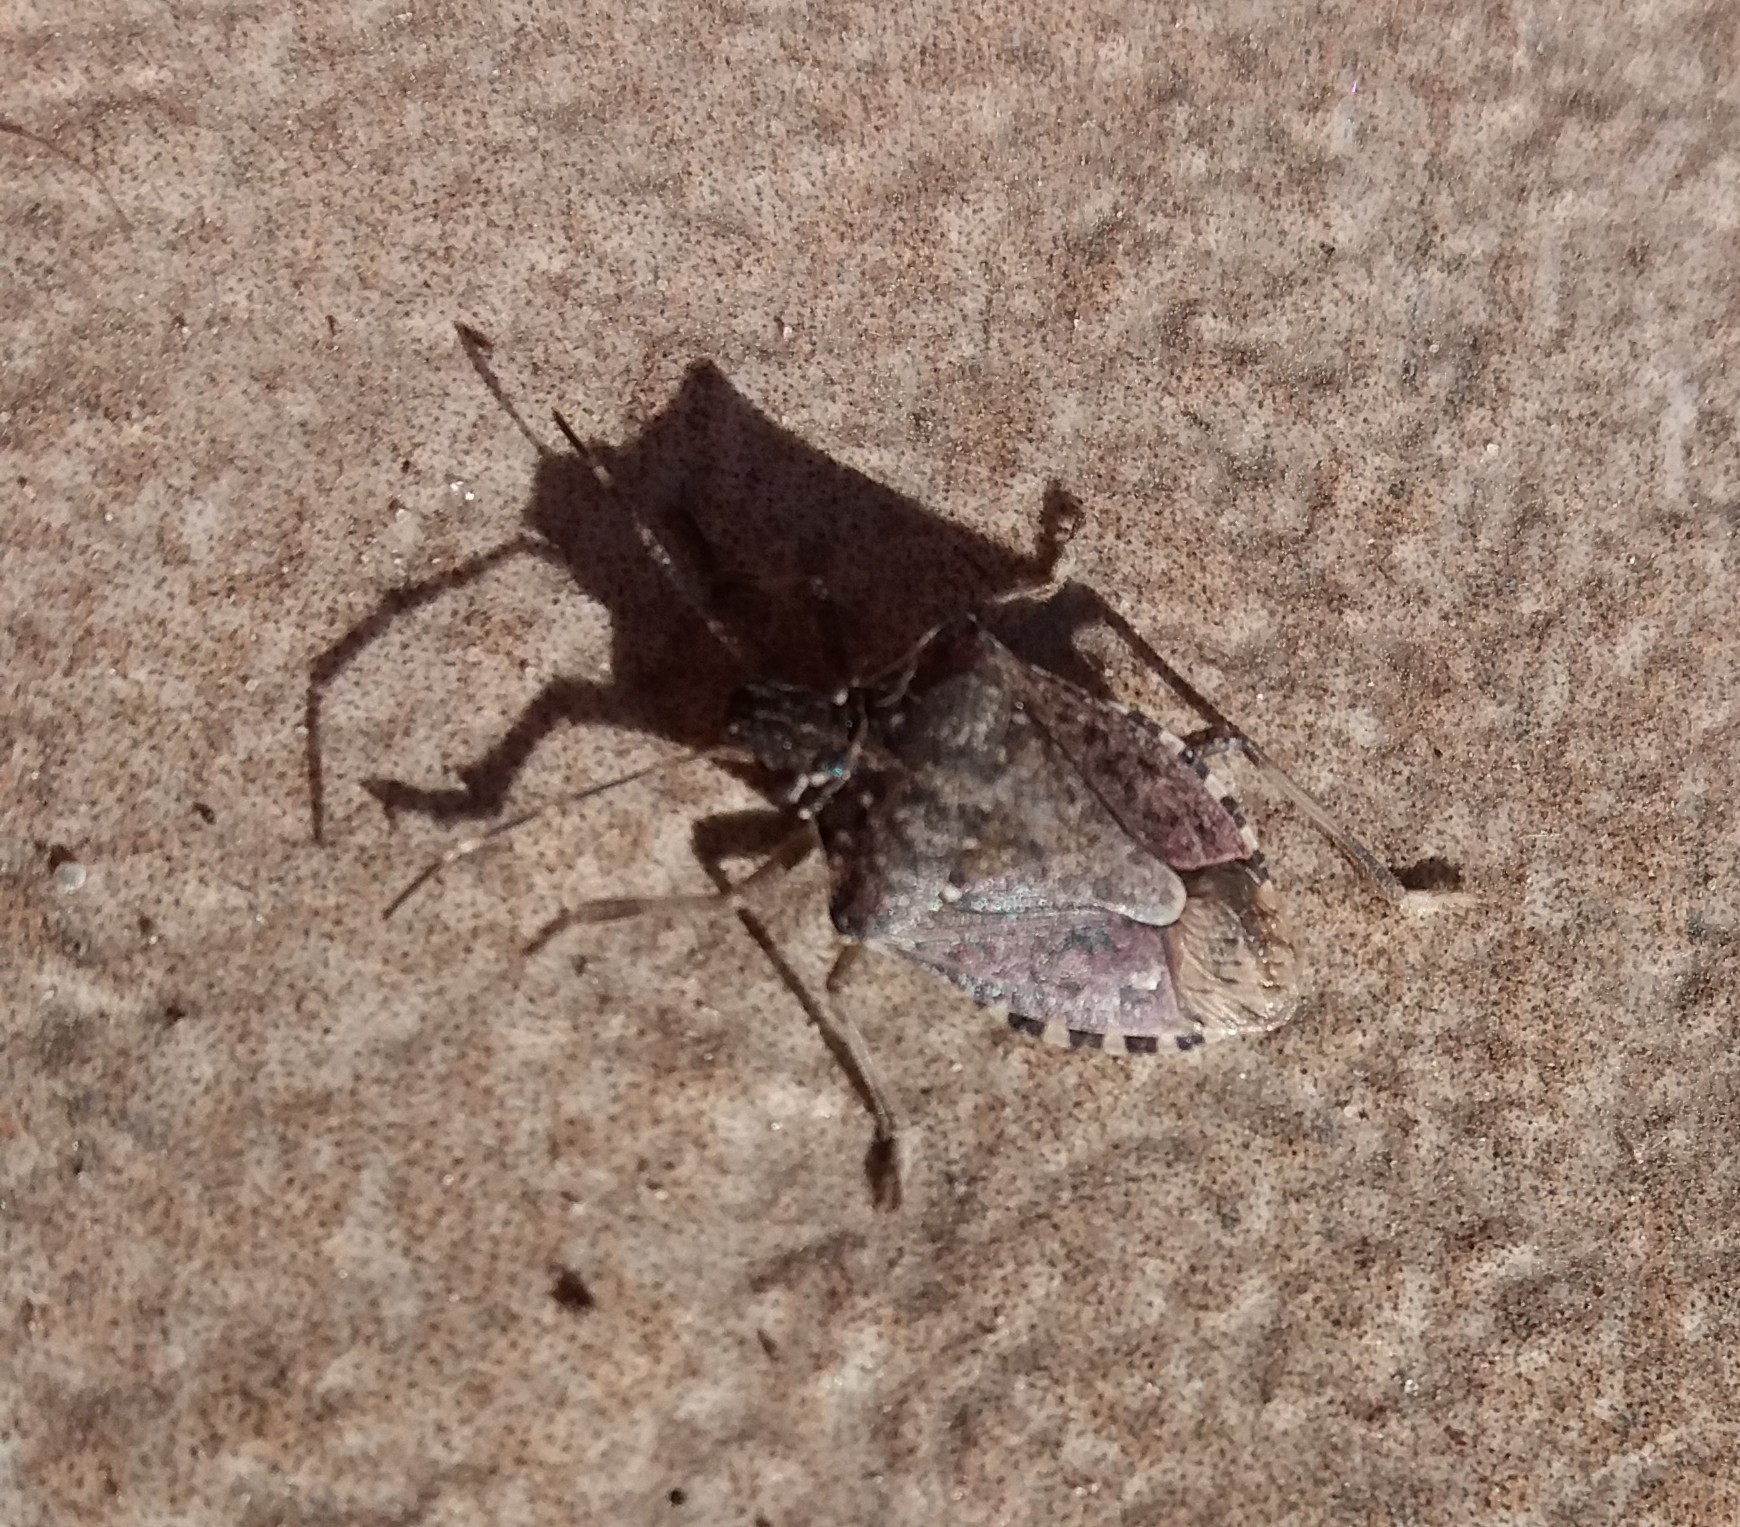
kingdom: Animalia
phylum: Arthropoda
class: Insecta
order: Hemiptera
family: Pentatomidae
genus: Halyomorpha
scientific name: Halyomorpha halys
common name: Brown marmorated stink bug
